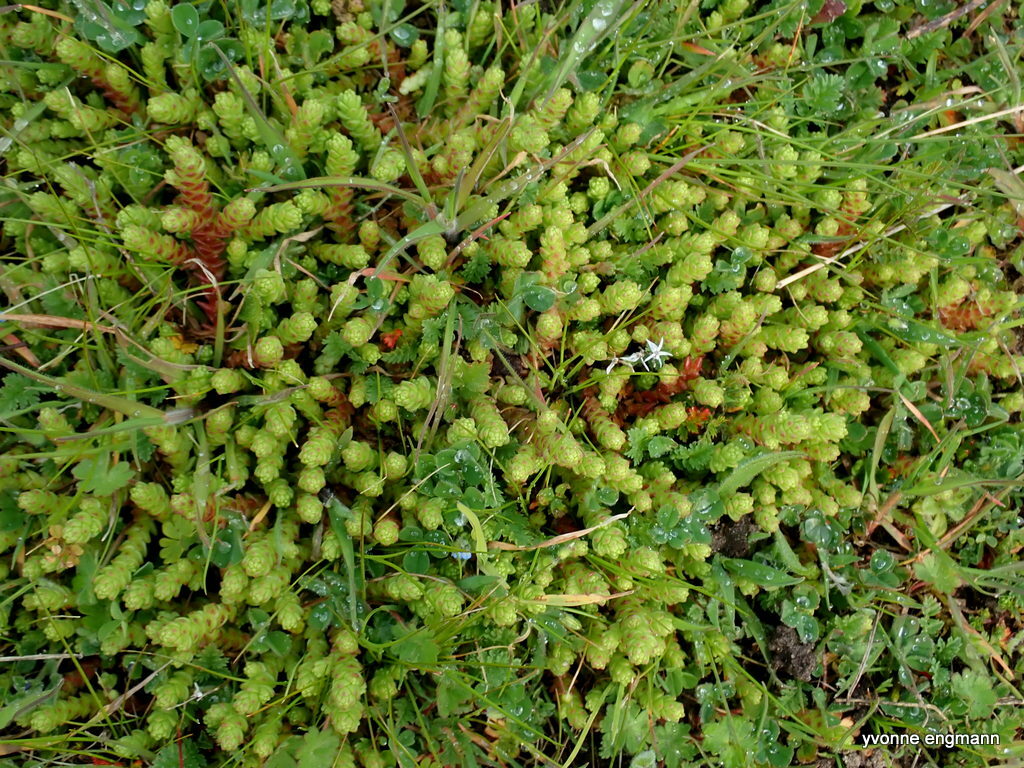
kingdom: Plantae
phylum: Tracheophyta
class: Magnoliopsida
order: Saxifragales
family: Crassulaceae
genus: Sedum
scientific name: Sedum acre
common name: Biting stonecrop
